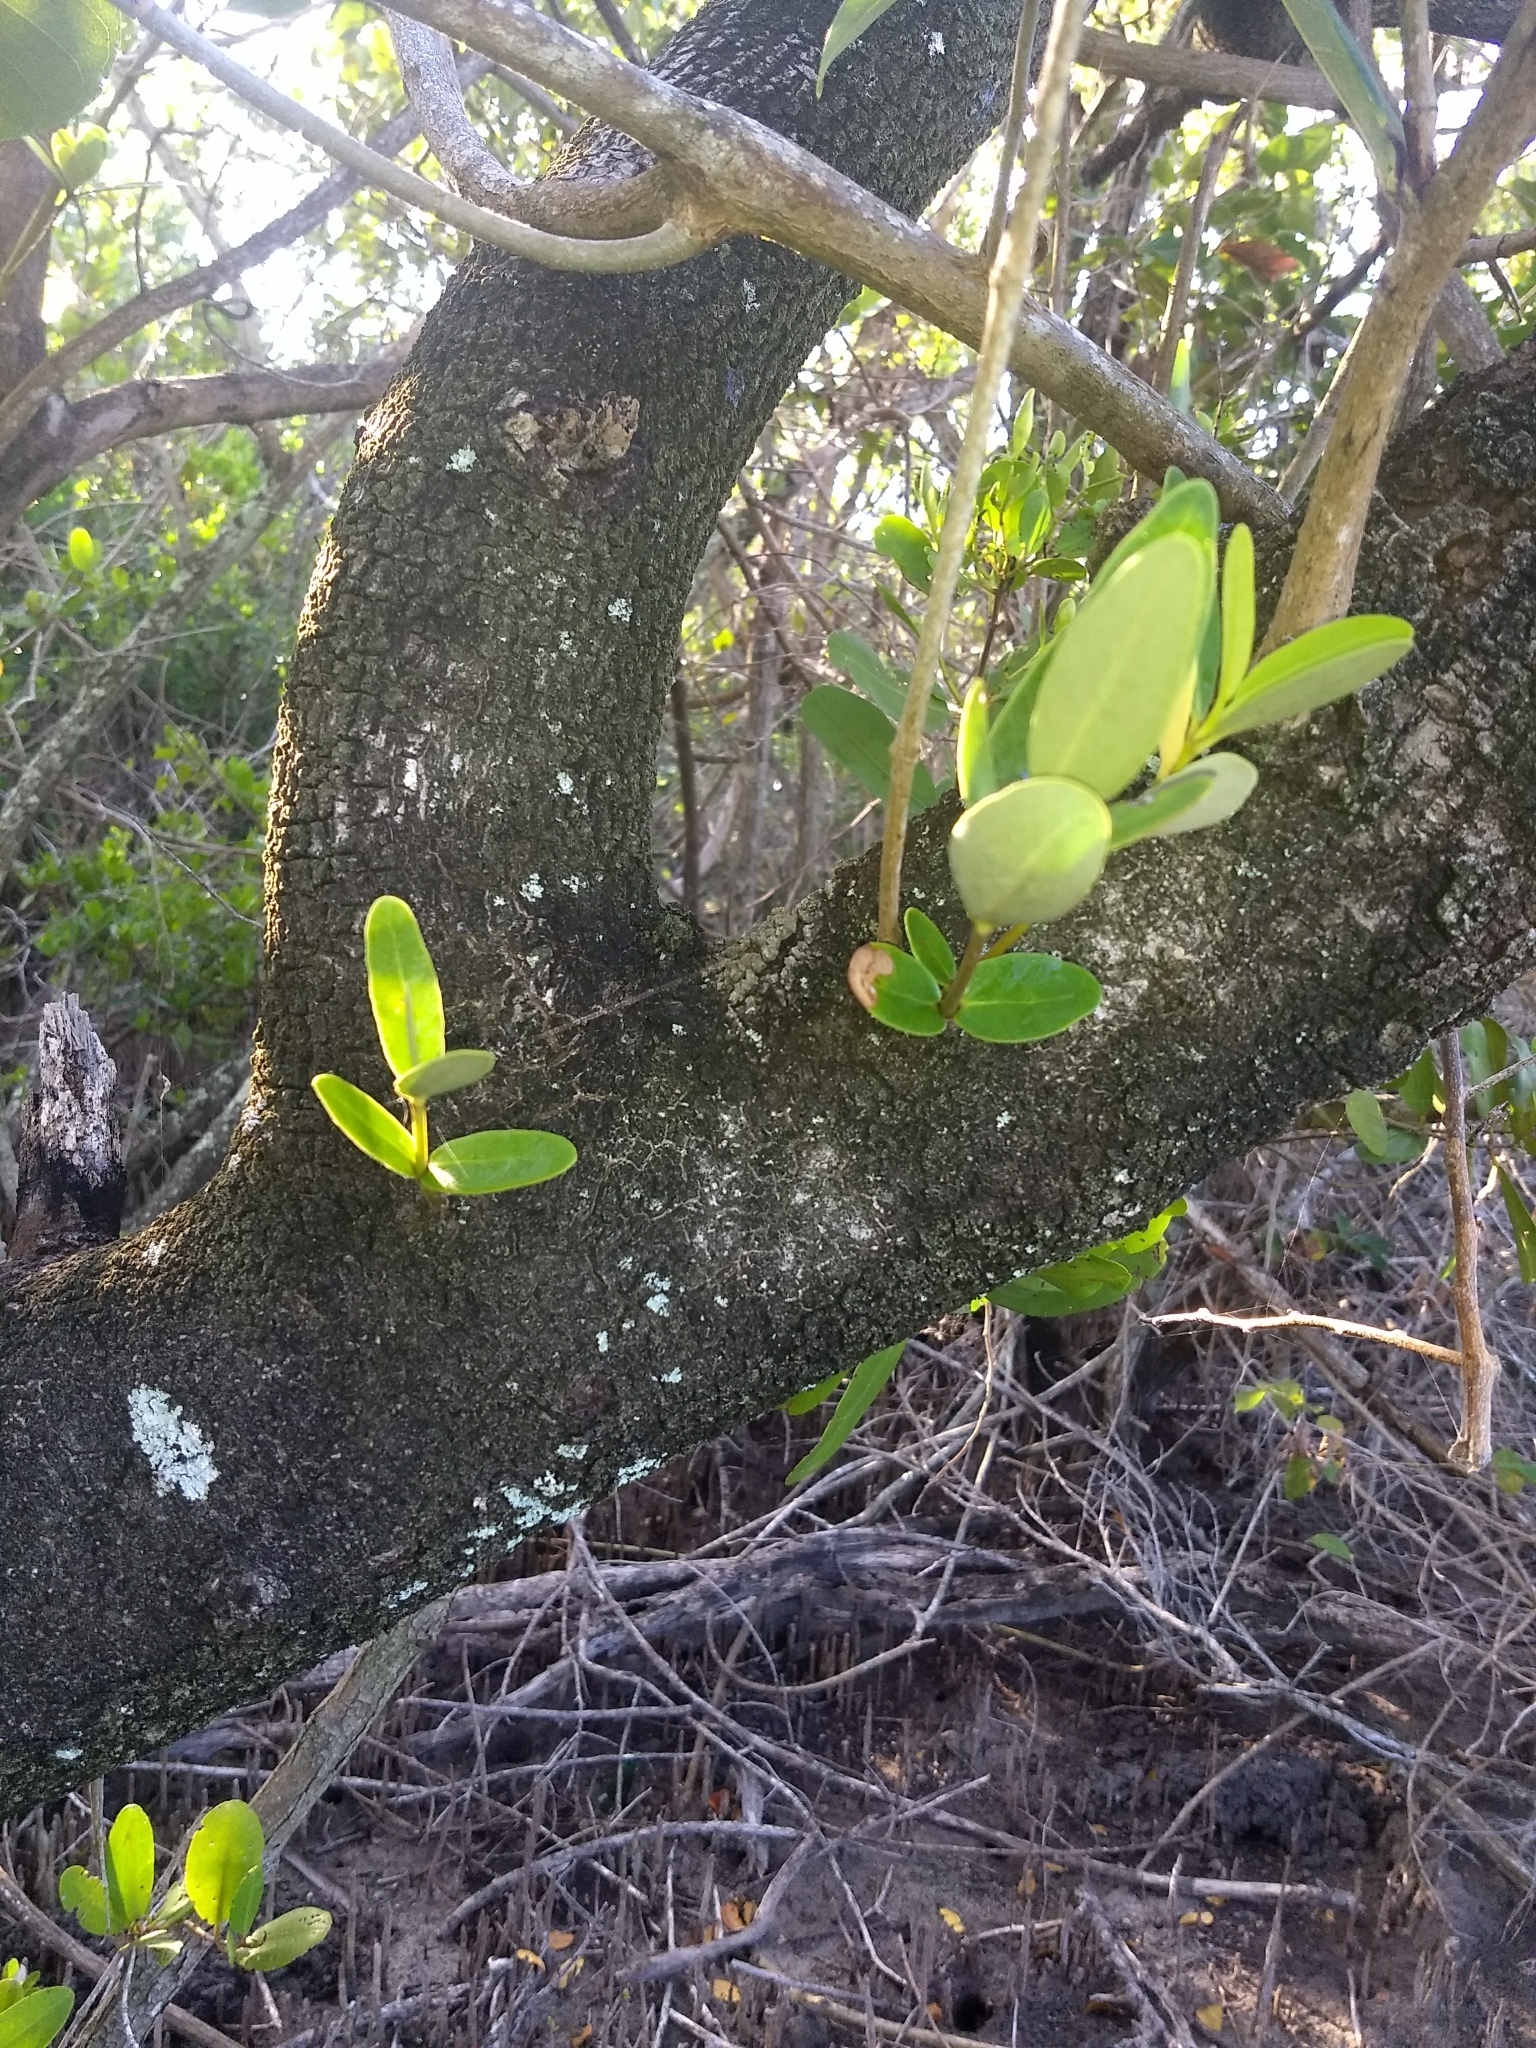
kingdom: Plantae
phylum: Tracheophyta
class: Magnoliopsida
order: Lamiales
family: Acanthaceae
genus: Avicennia
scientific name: Avicennia germinans
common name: Black mangrove
